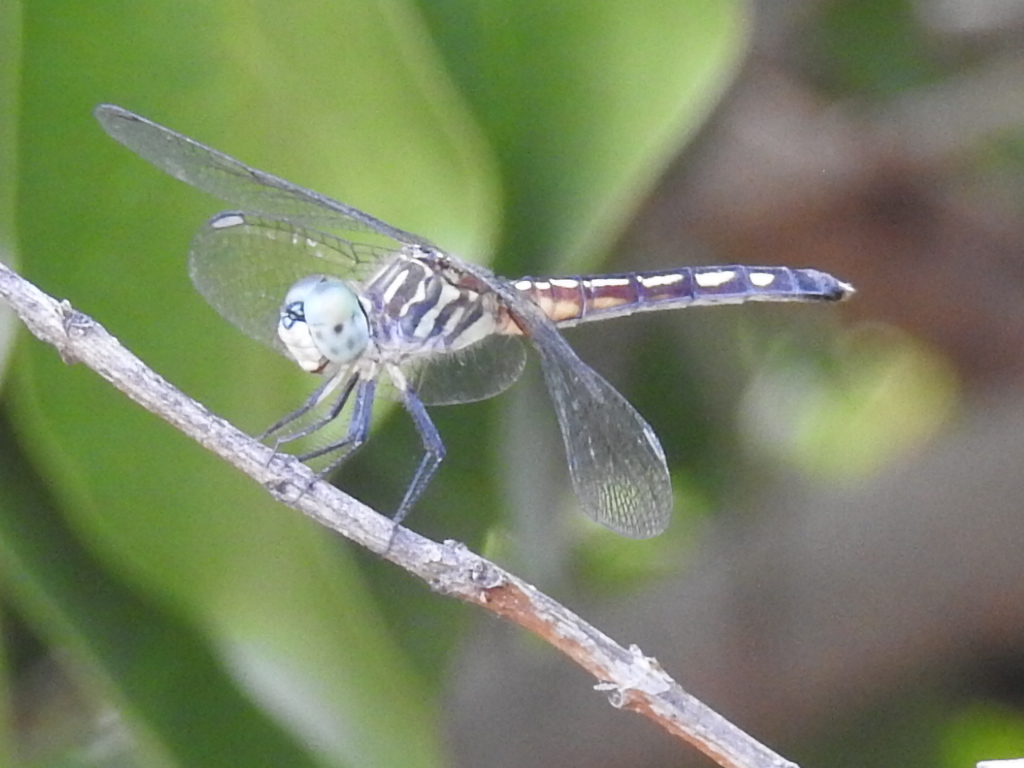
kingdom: Animalia
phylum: Arthropoda
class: Insecta
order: Odonata
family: Libellulidae
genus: Pachydiplax
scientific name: Pachydiplax longipennis
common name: Blue dasher
